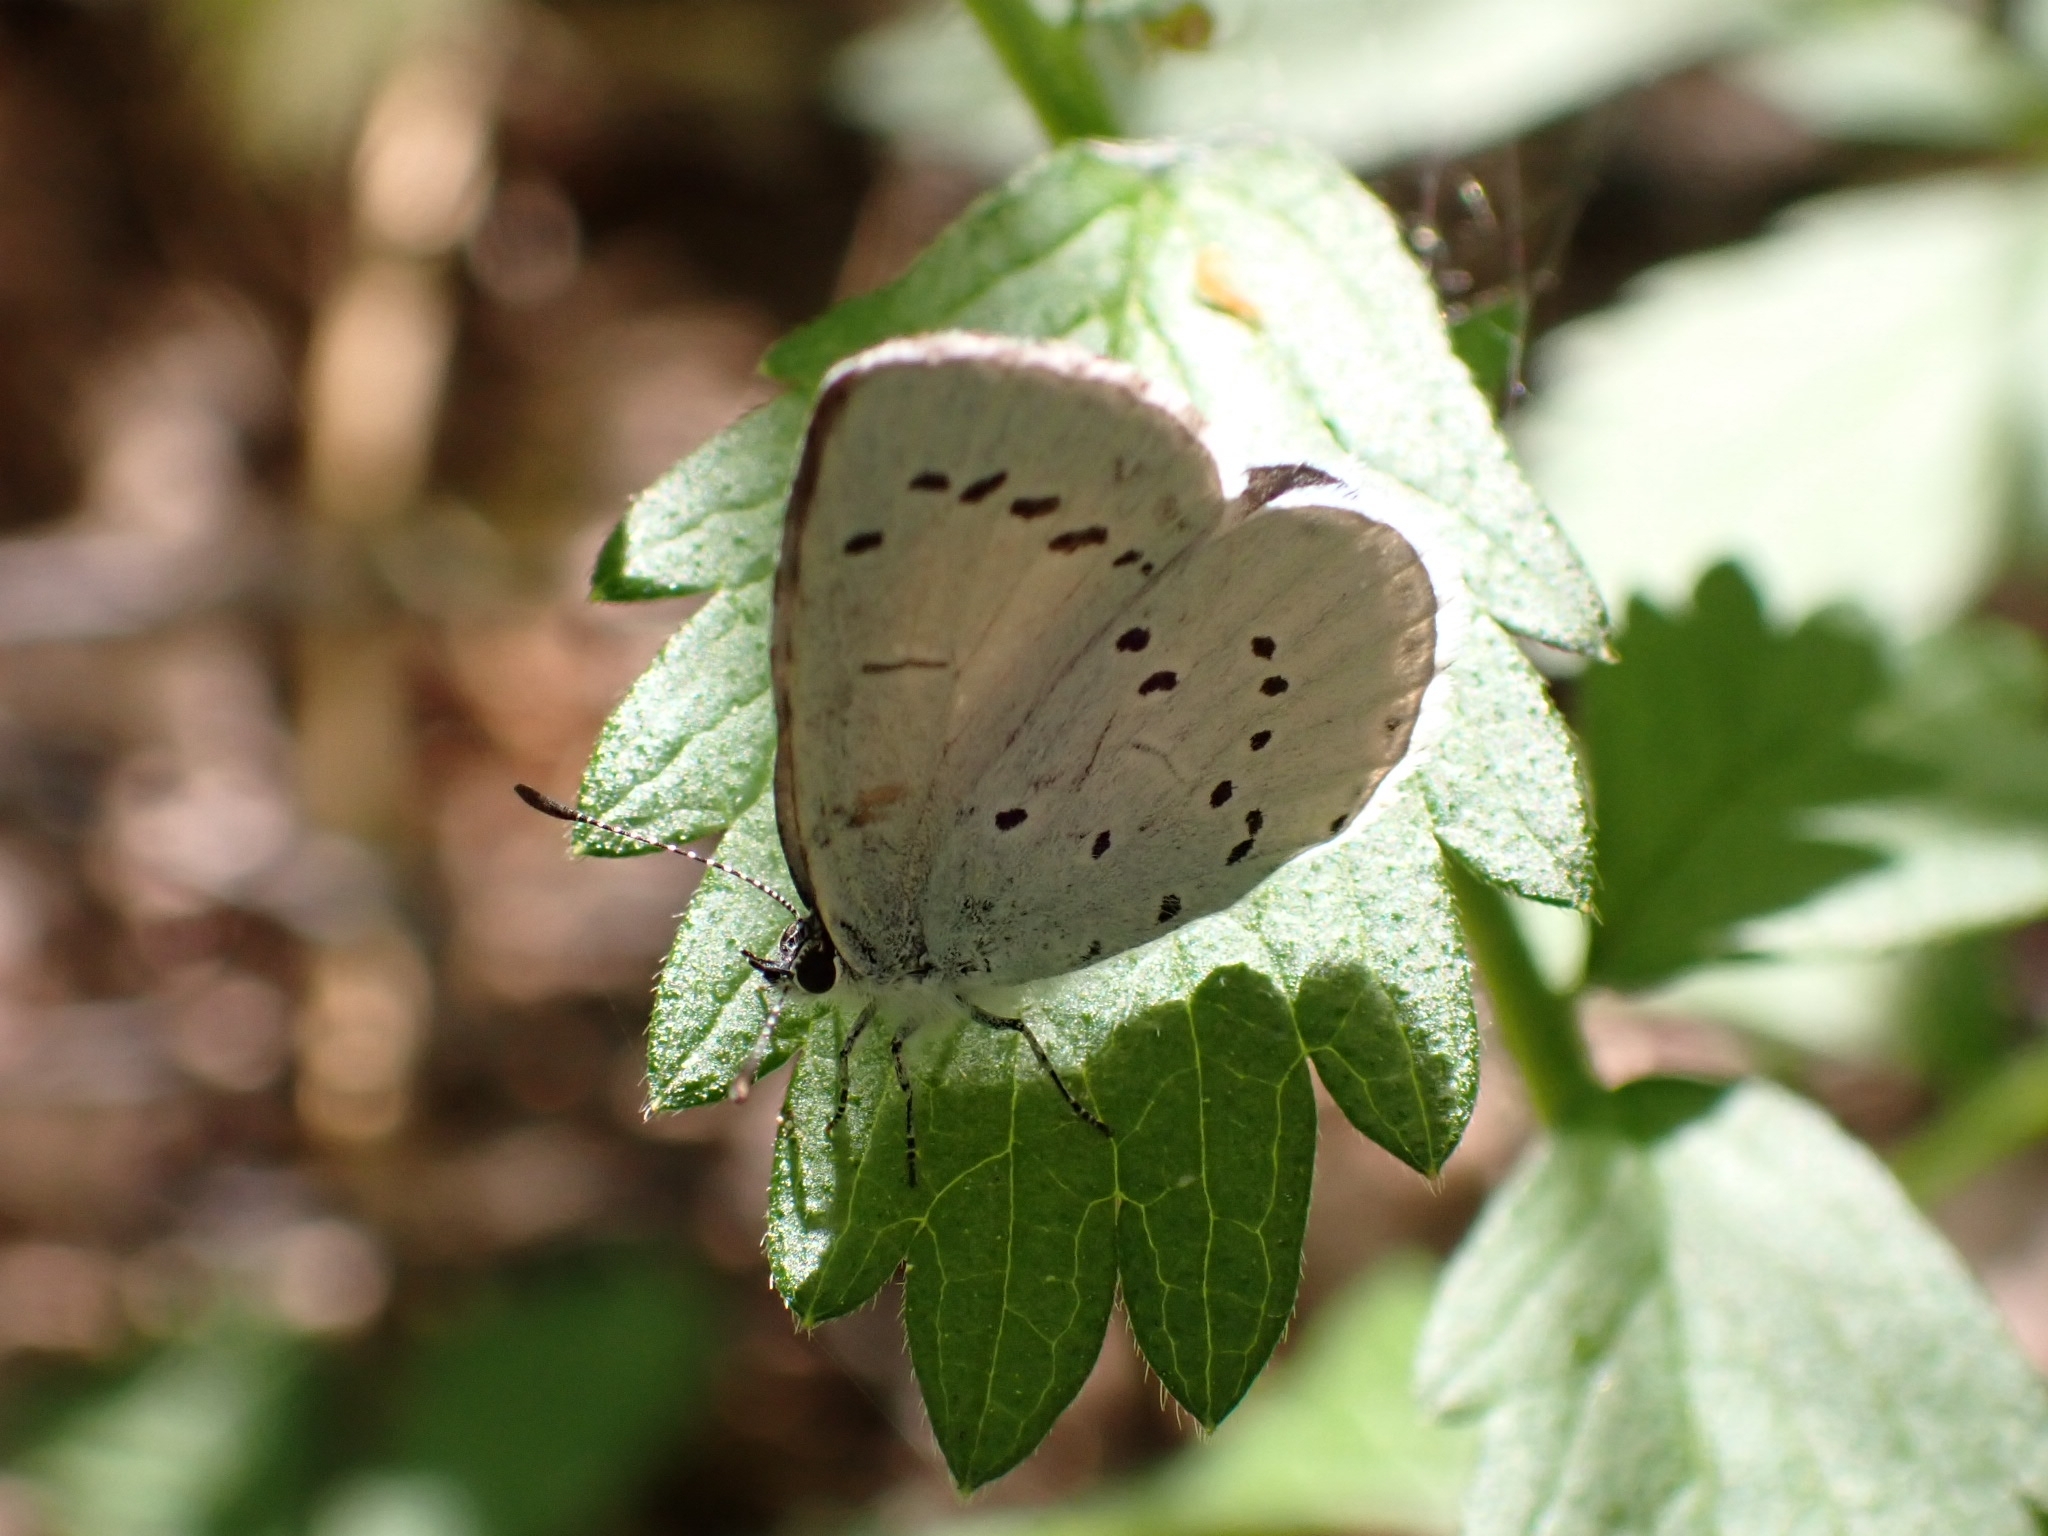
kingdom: Animalia
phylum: Arthropoda
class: Insecta
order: Lepidoptera
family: Lycaenidae
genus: Celastrina
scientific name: Celastrina argiolus
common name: Holly blue
